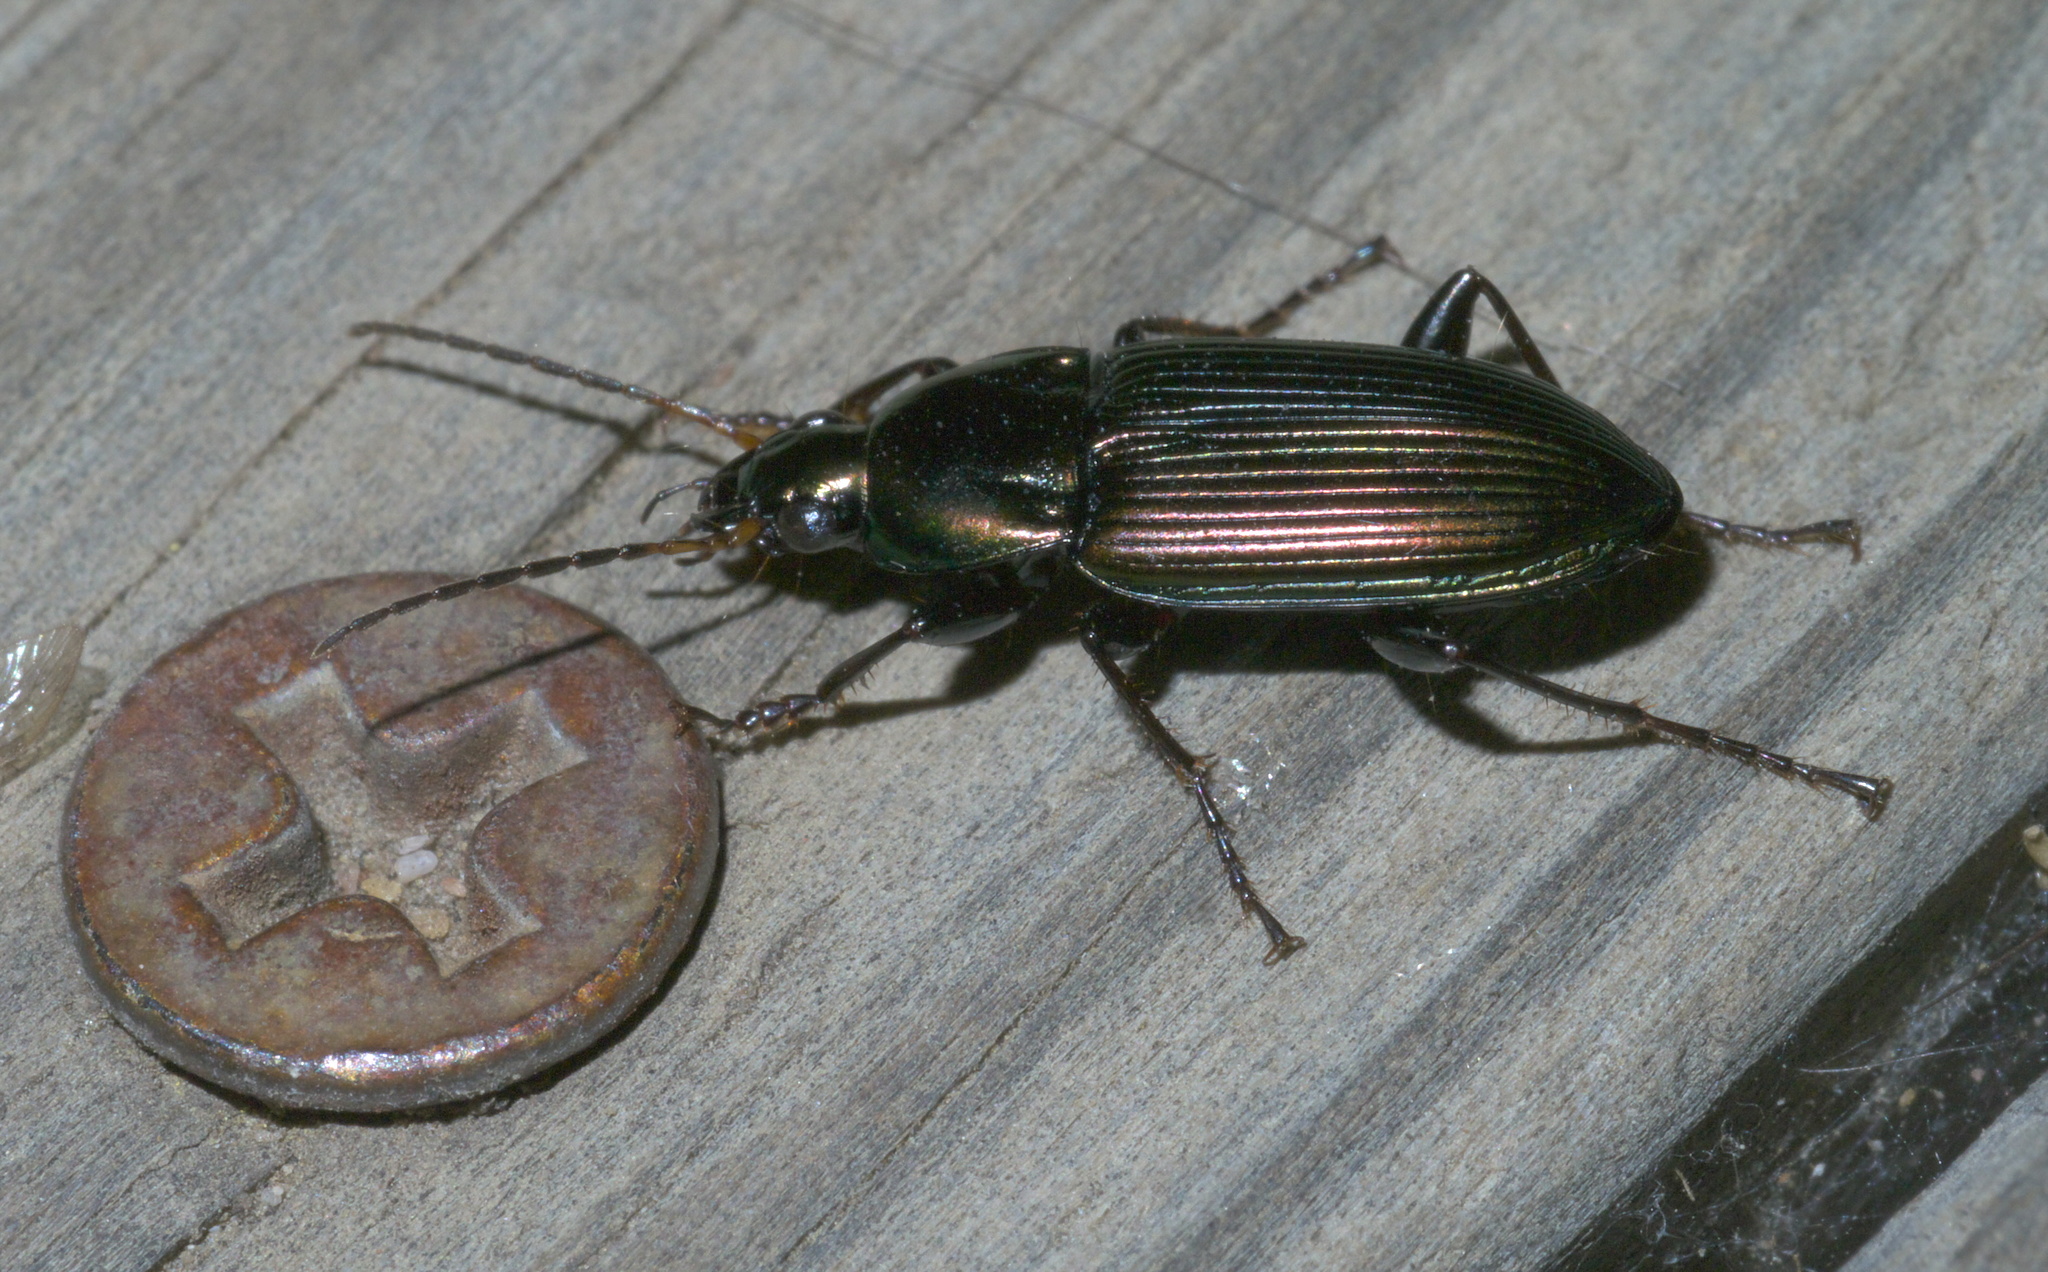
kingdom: Animalia
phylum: Arthropoda
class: Insecta
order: Coleoptera
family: Carabidae
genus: Poecilus
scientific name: Poecilus chalcites
